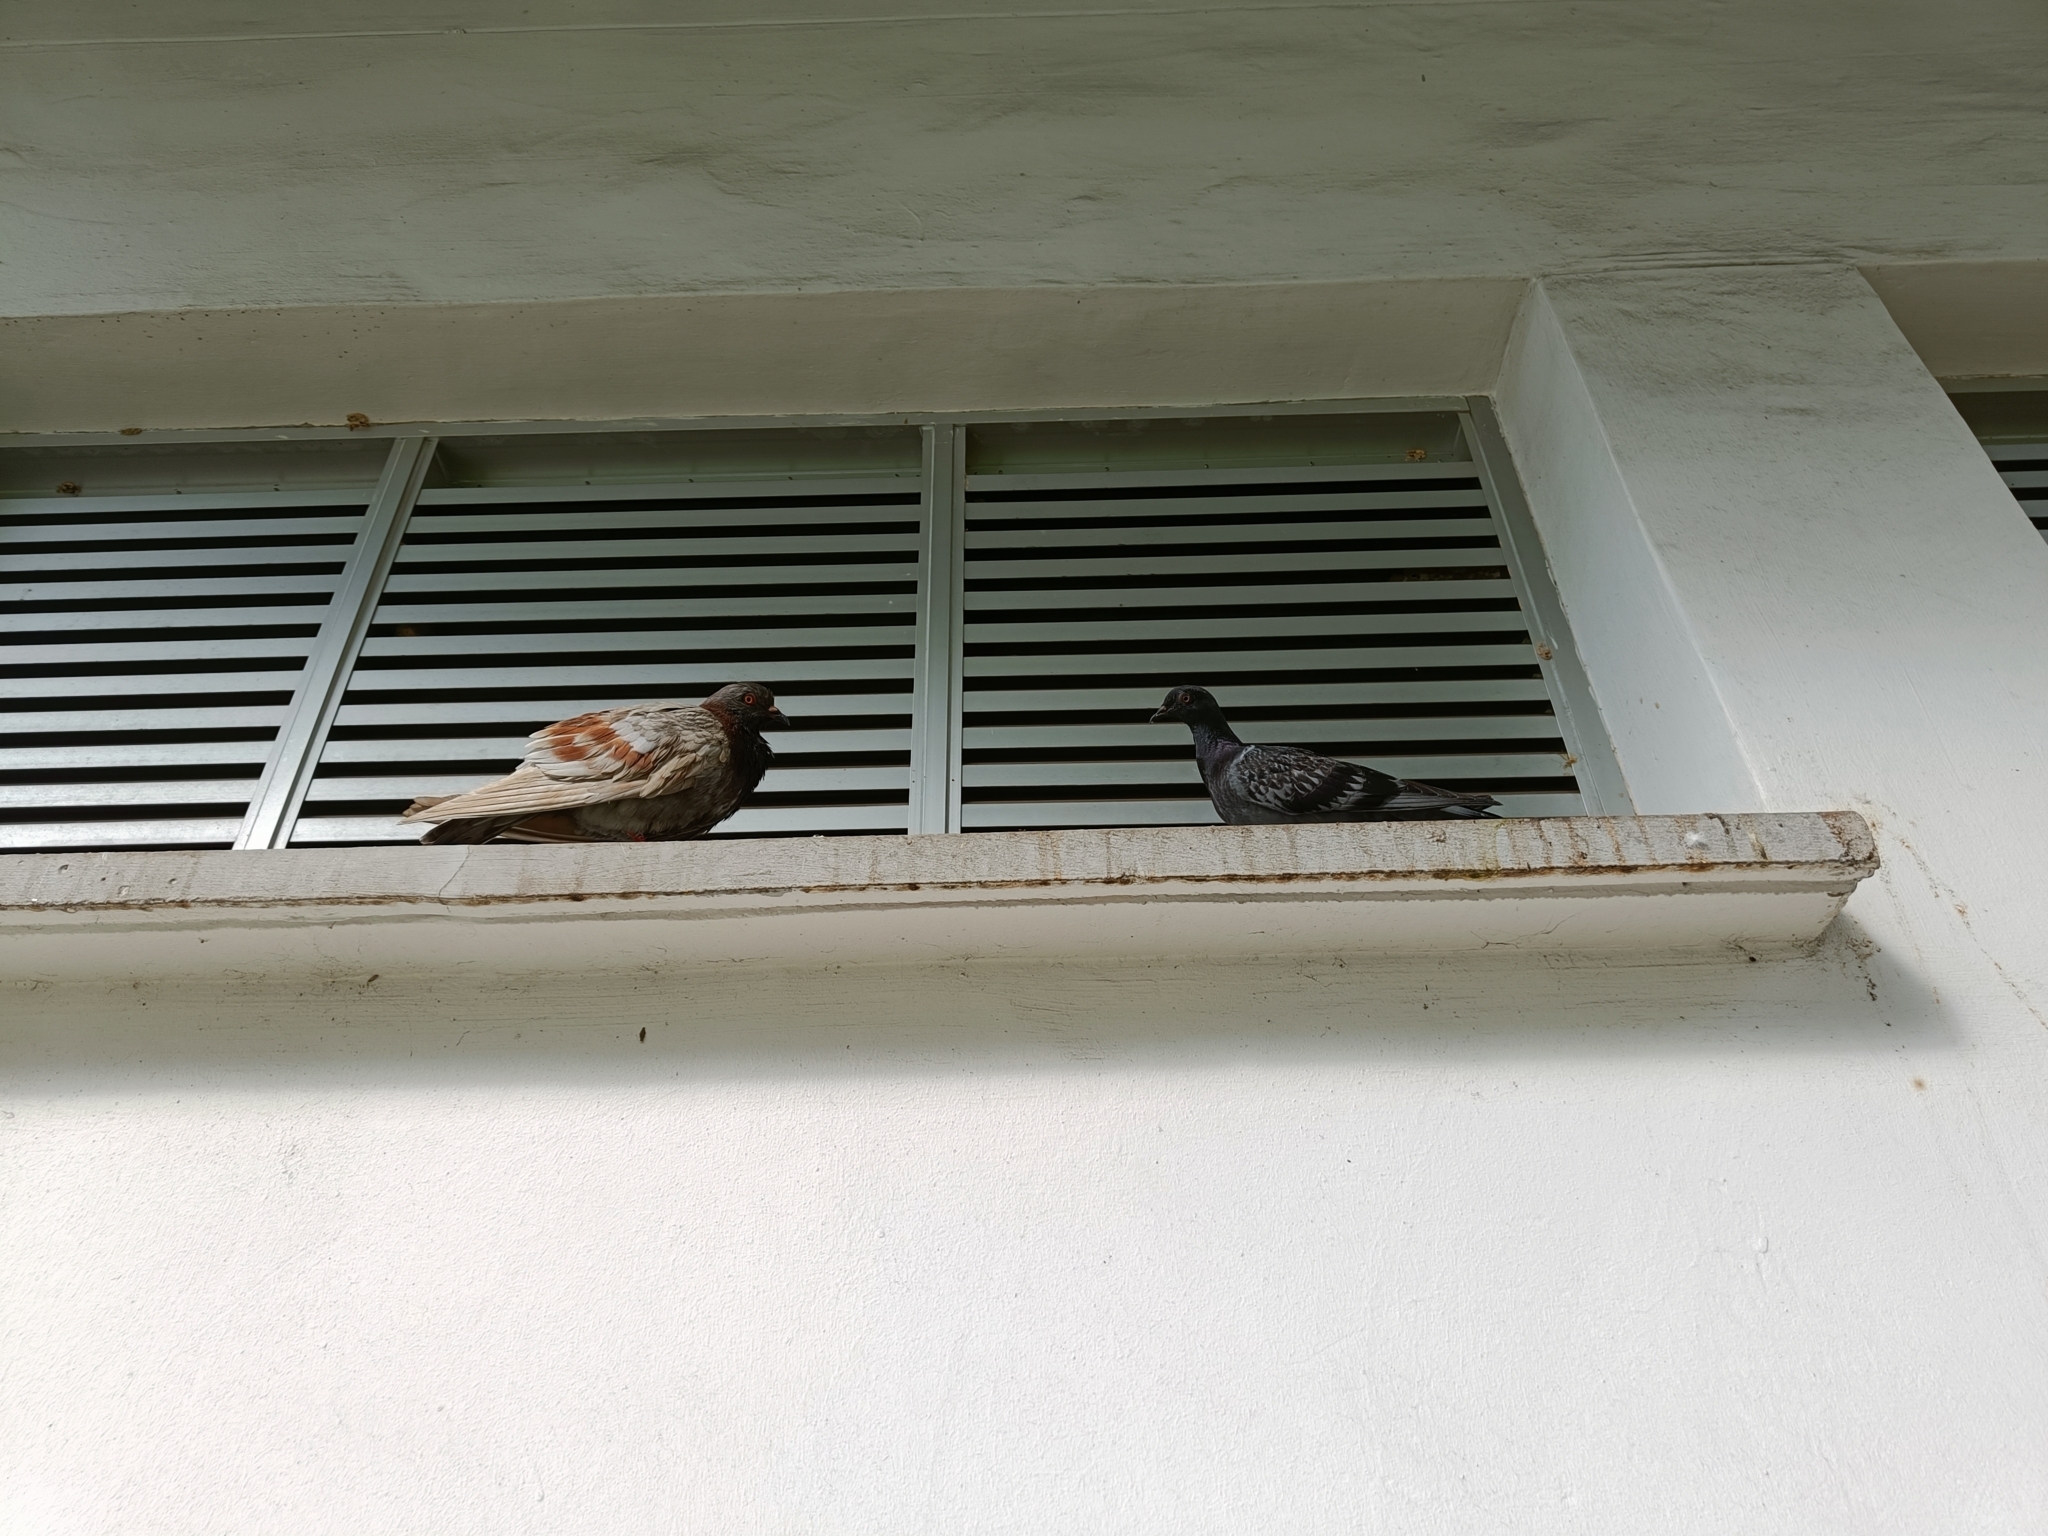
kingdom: Animalia
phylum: Chordata
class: Aves
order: Columbiformes
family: Columbidae
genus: Columba
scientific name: Columba livia
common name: Rock pigeon
